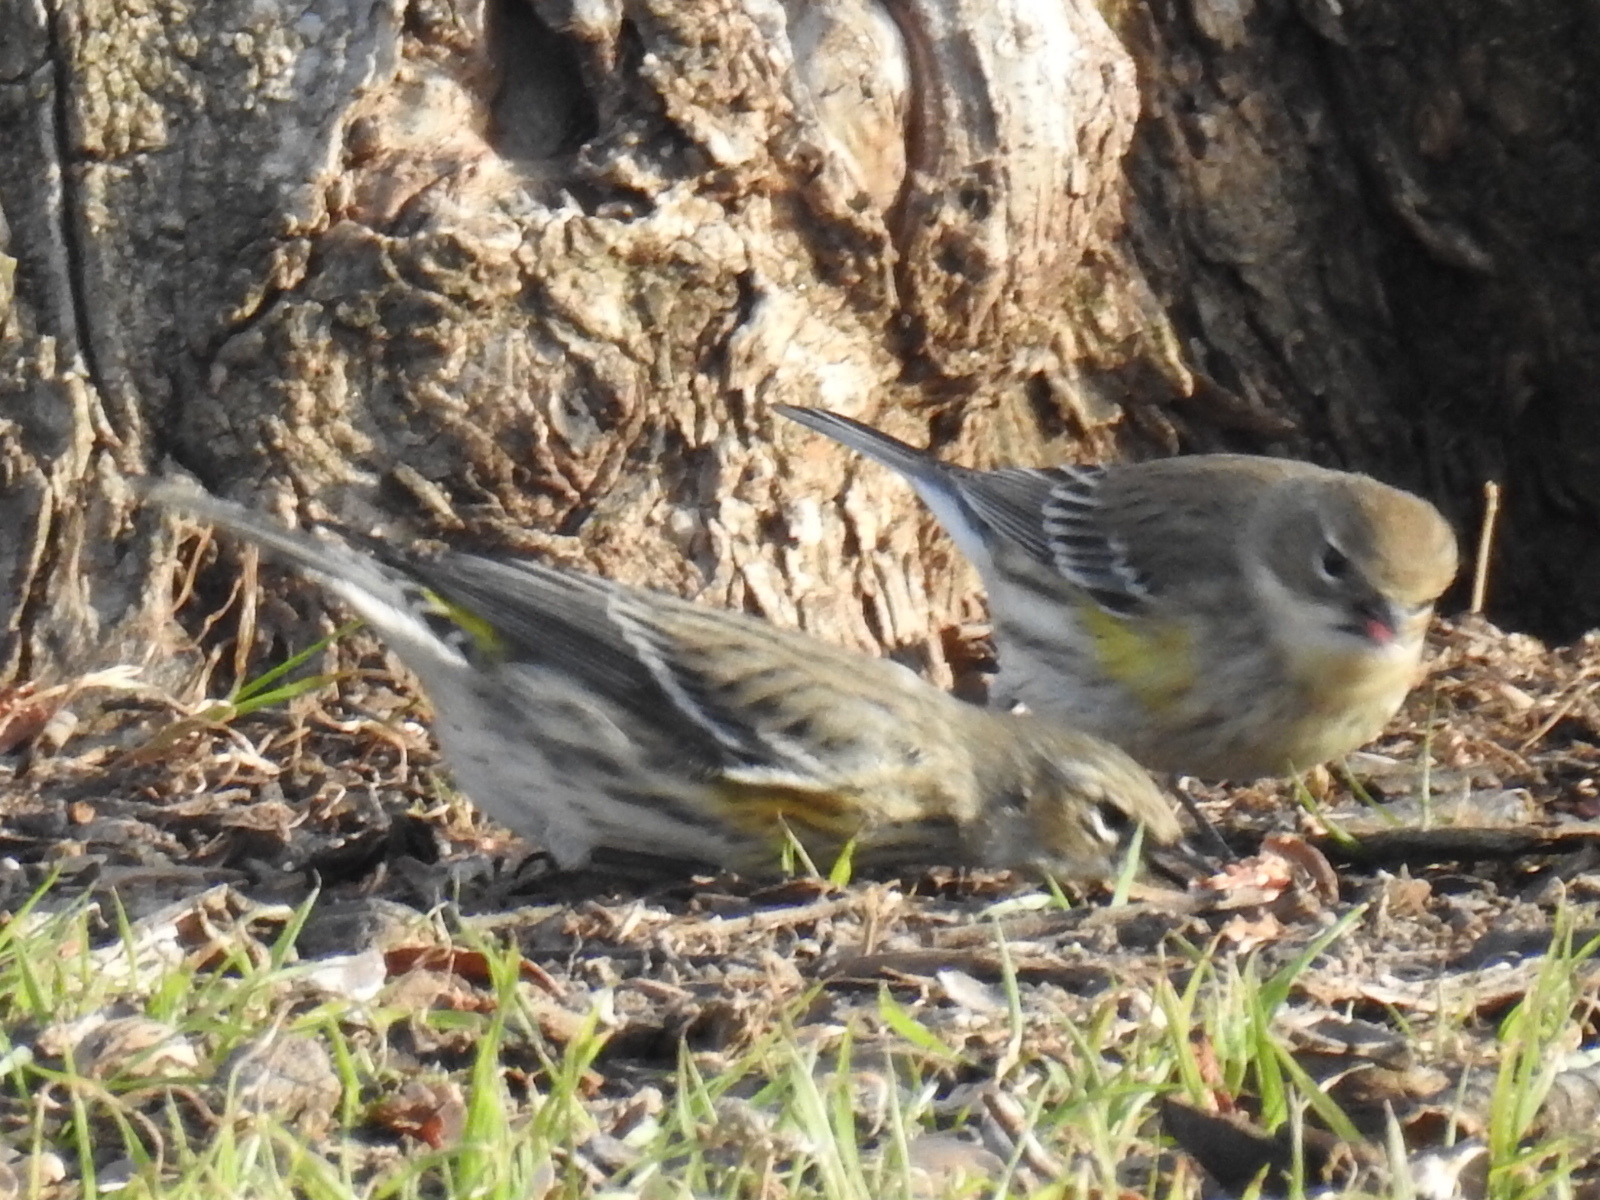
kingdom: Animalia
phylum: Chordata
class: Aves
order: Passeriformes
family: Parulidae
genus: Setophaga
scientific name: Setophaga coronata
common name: Myrtle warbler
